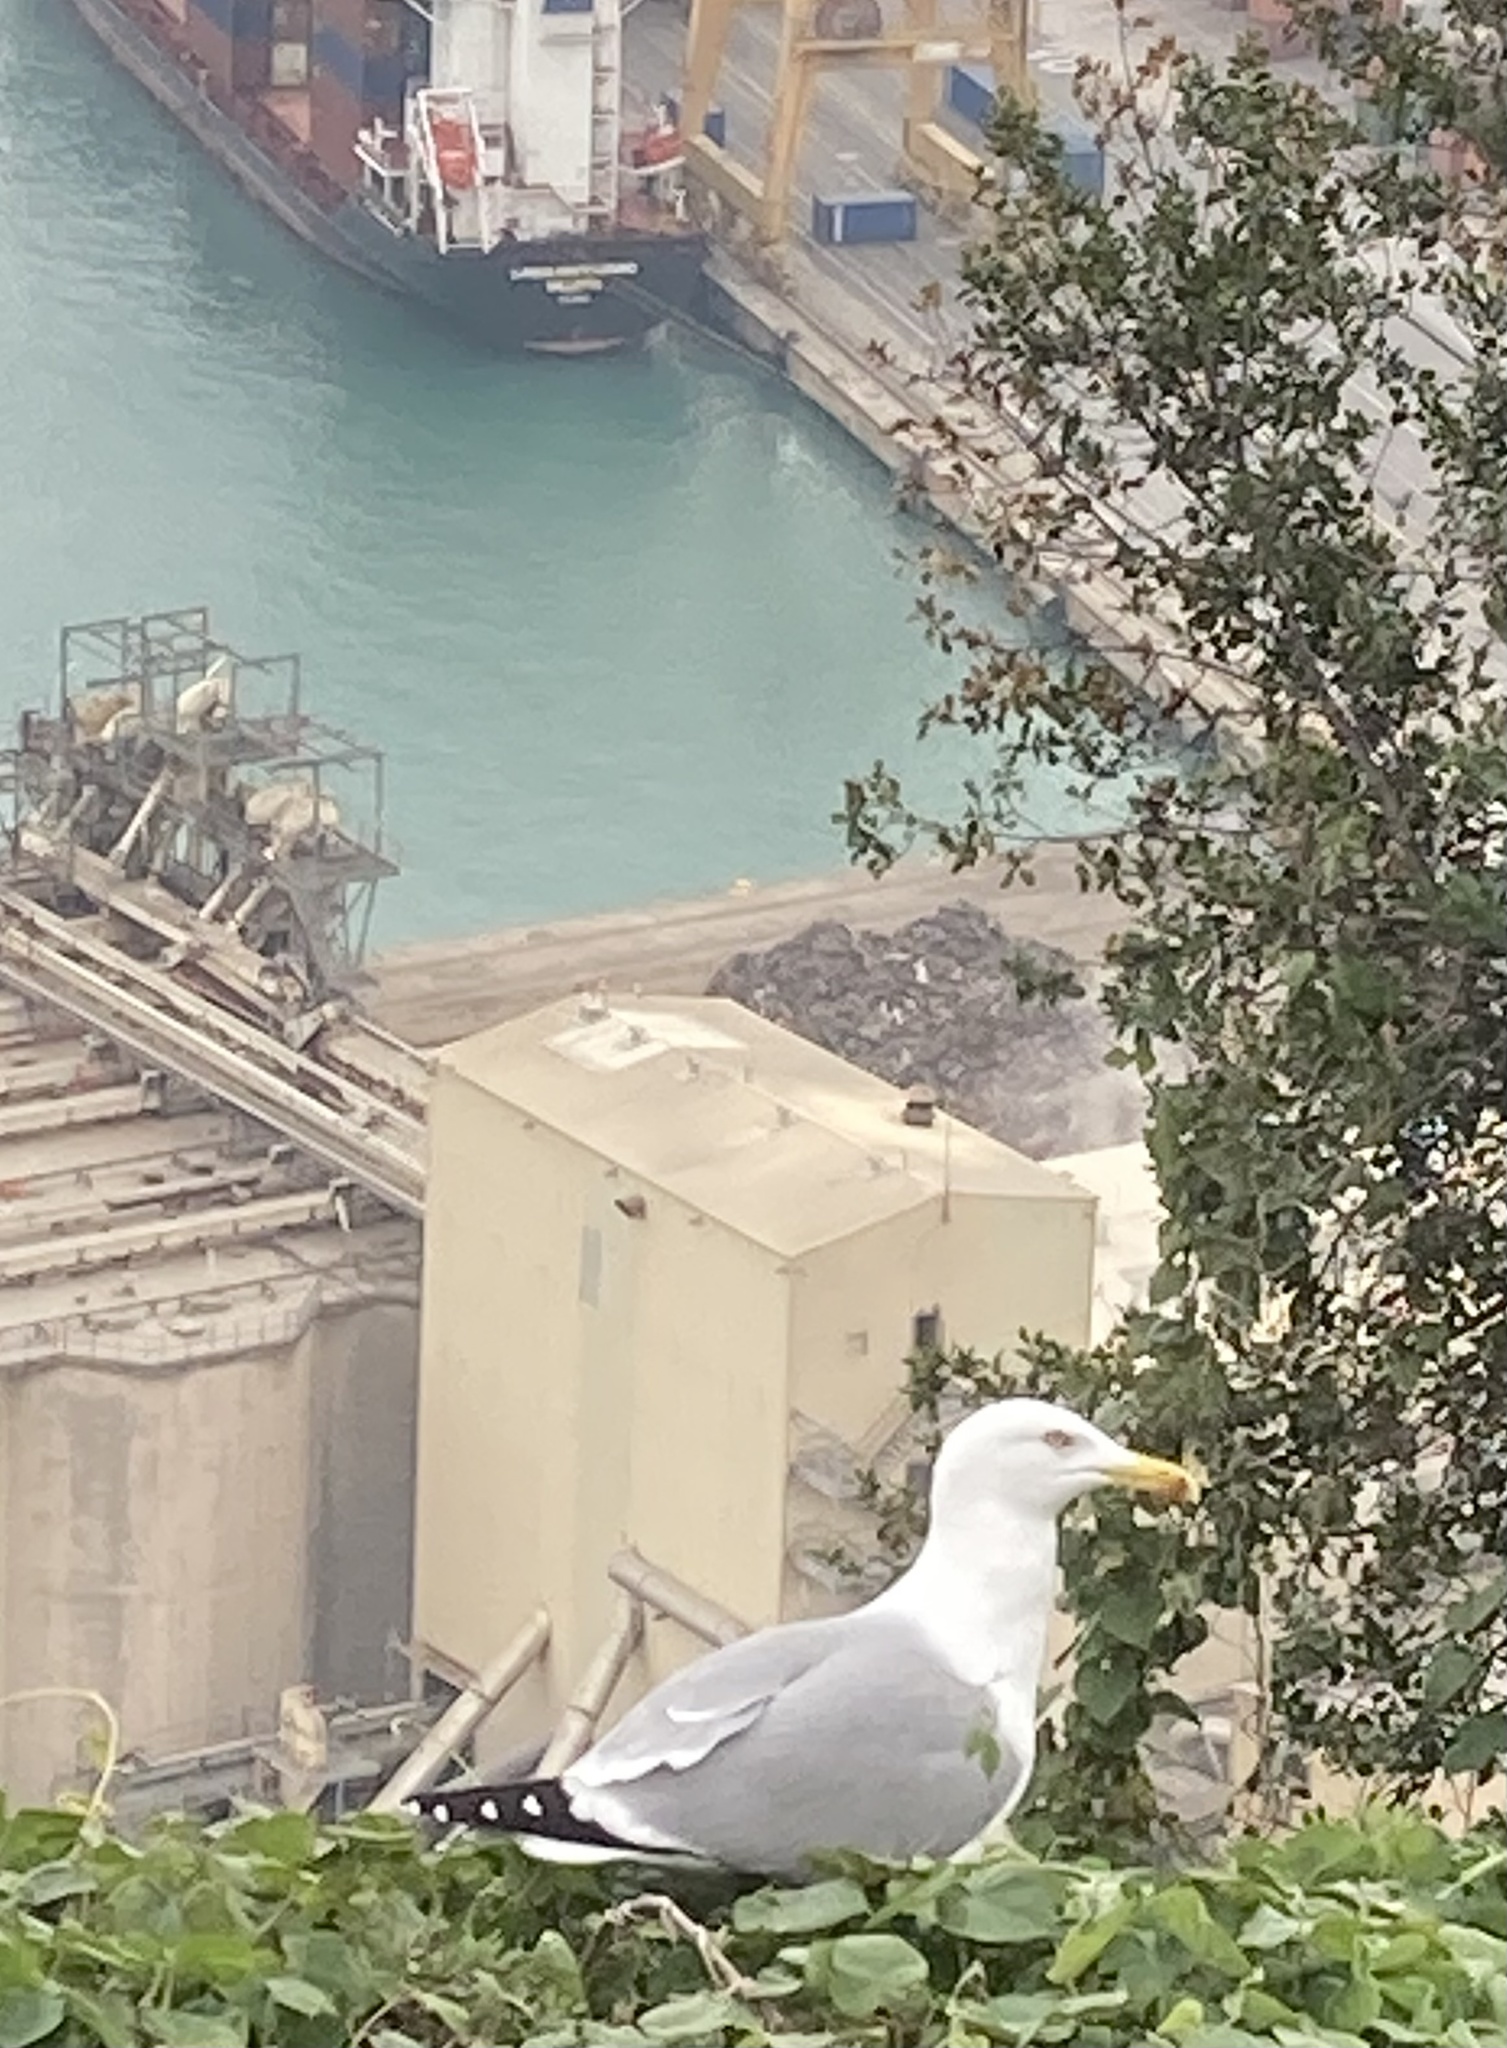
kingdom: Animalia
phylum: Chordata
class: Aves
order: Charadriiformes
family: Laridae
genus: Larus
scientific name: Larus michahellis
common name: Yellow-legged gull
